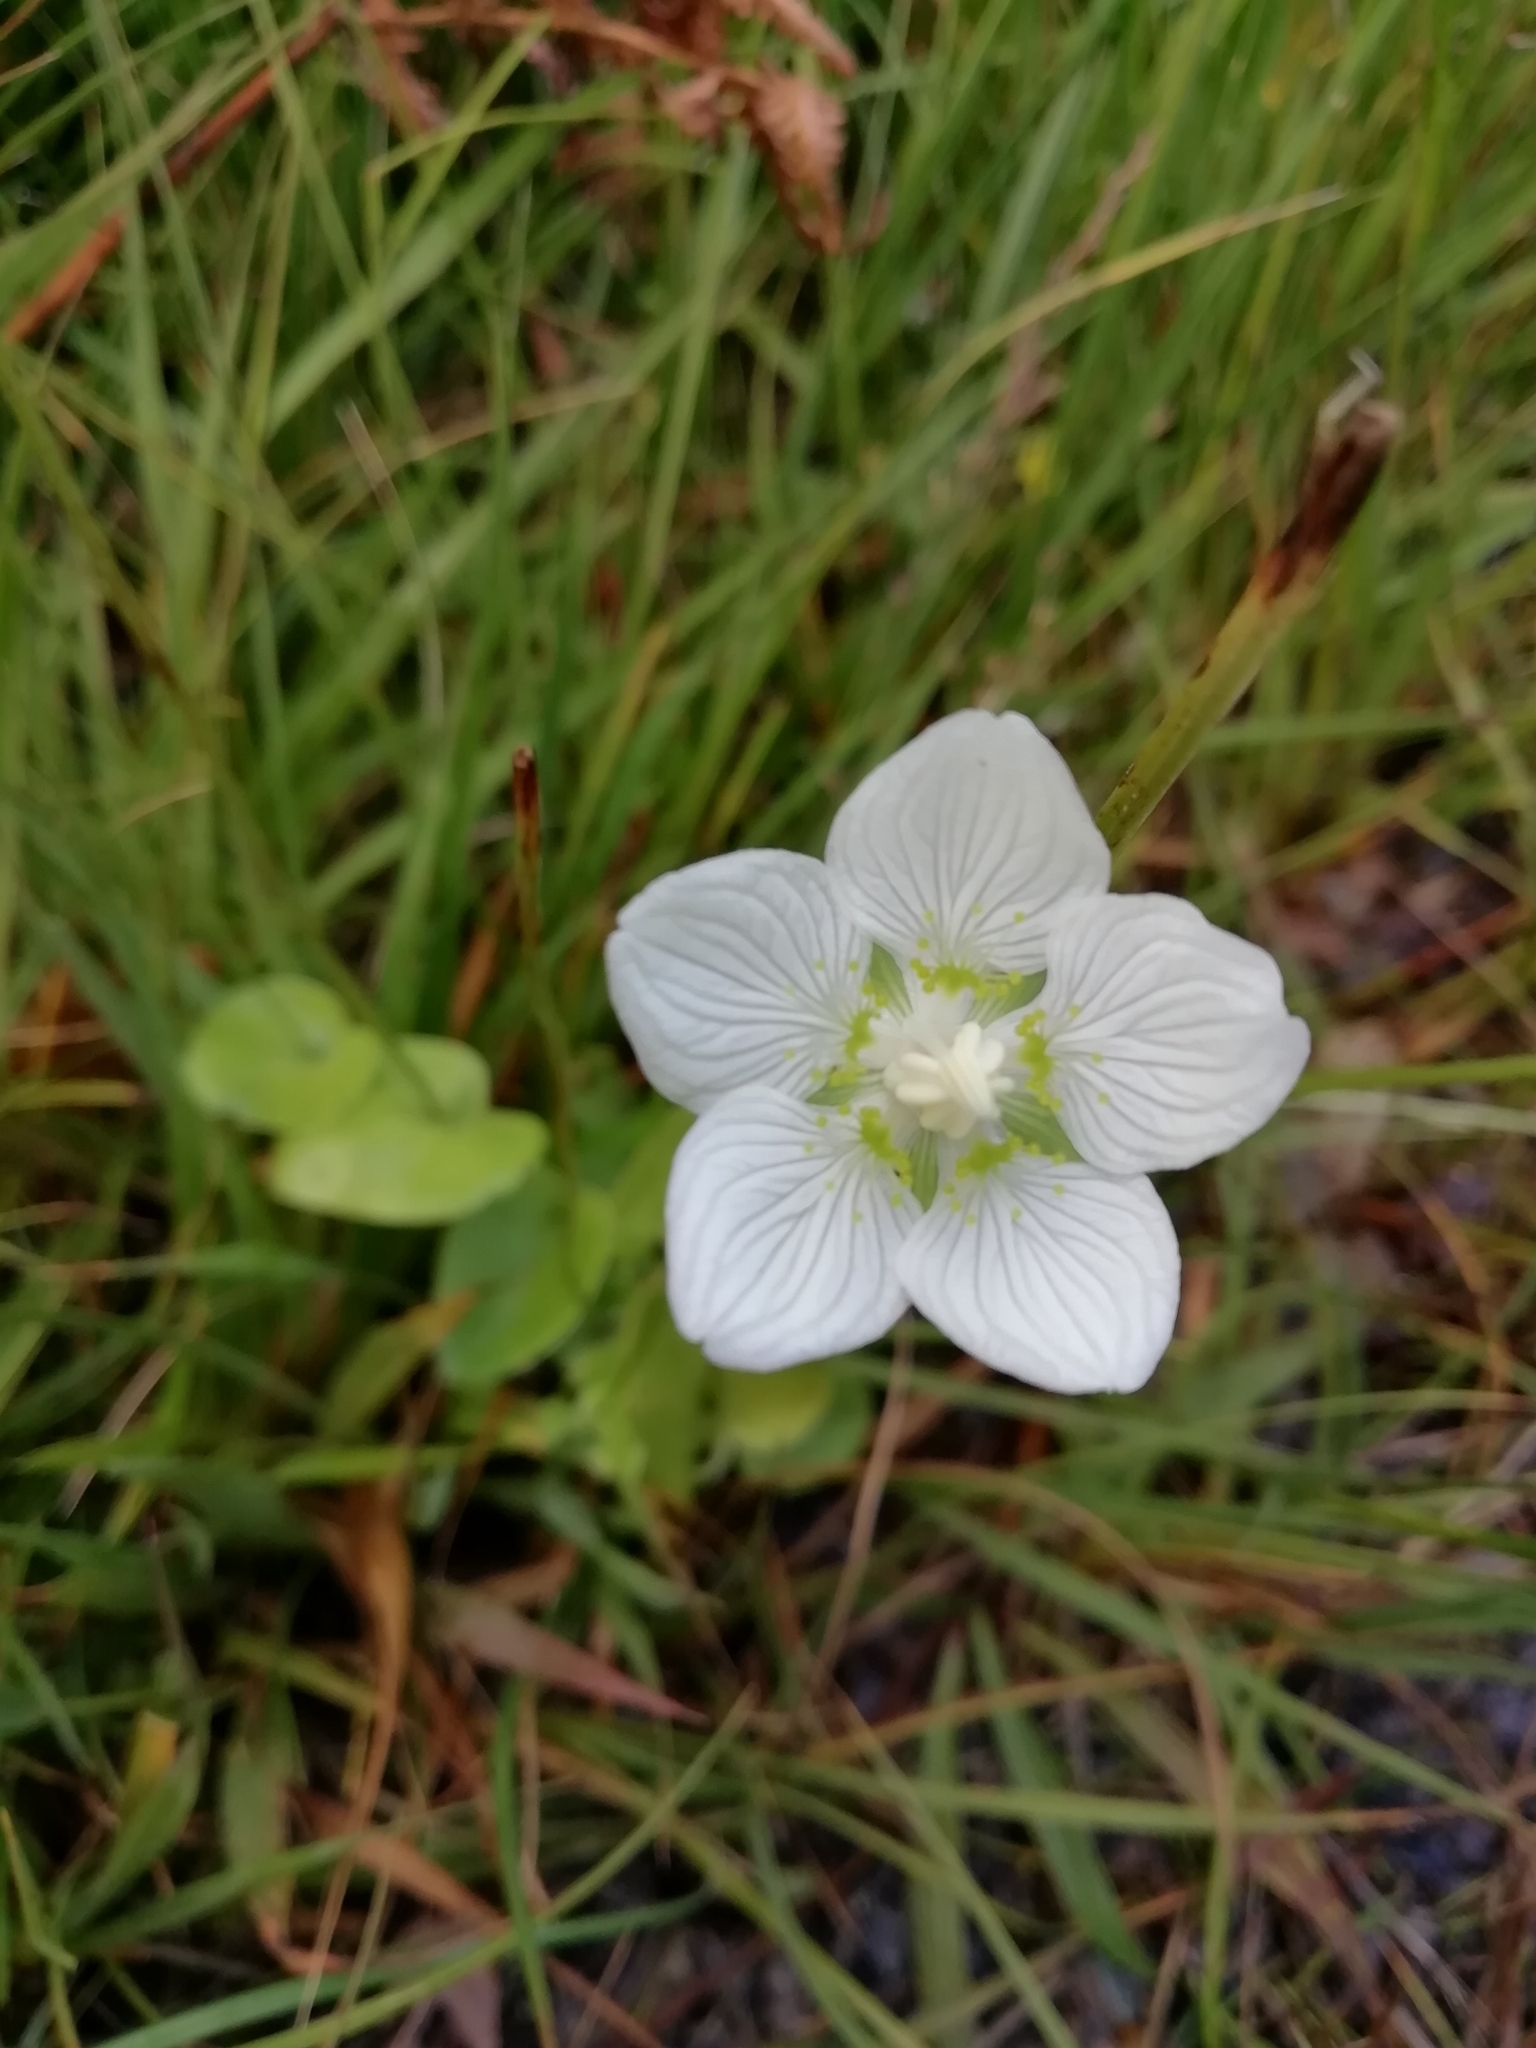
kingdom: Plantae
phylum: Tracheophyta
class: Magnoliopsida
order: Celastrales
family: Parnassiaceae
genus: Parnassia
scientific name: Parnassia palustris
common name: Grass-of-parnassus
